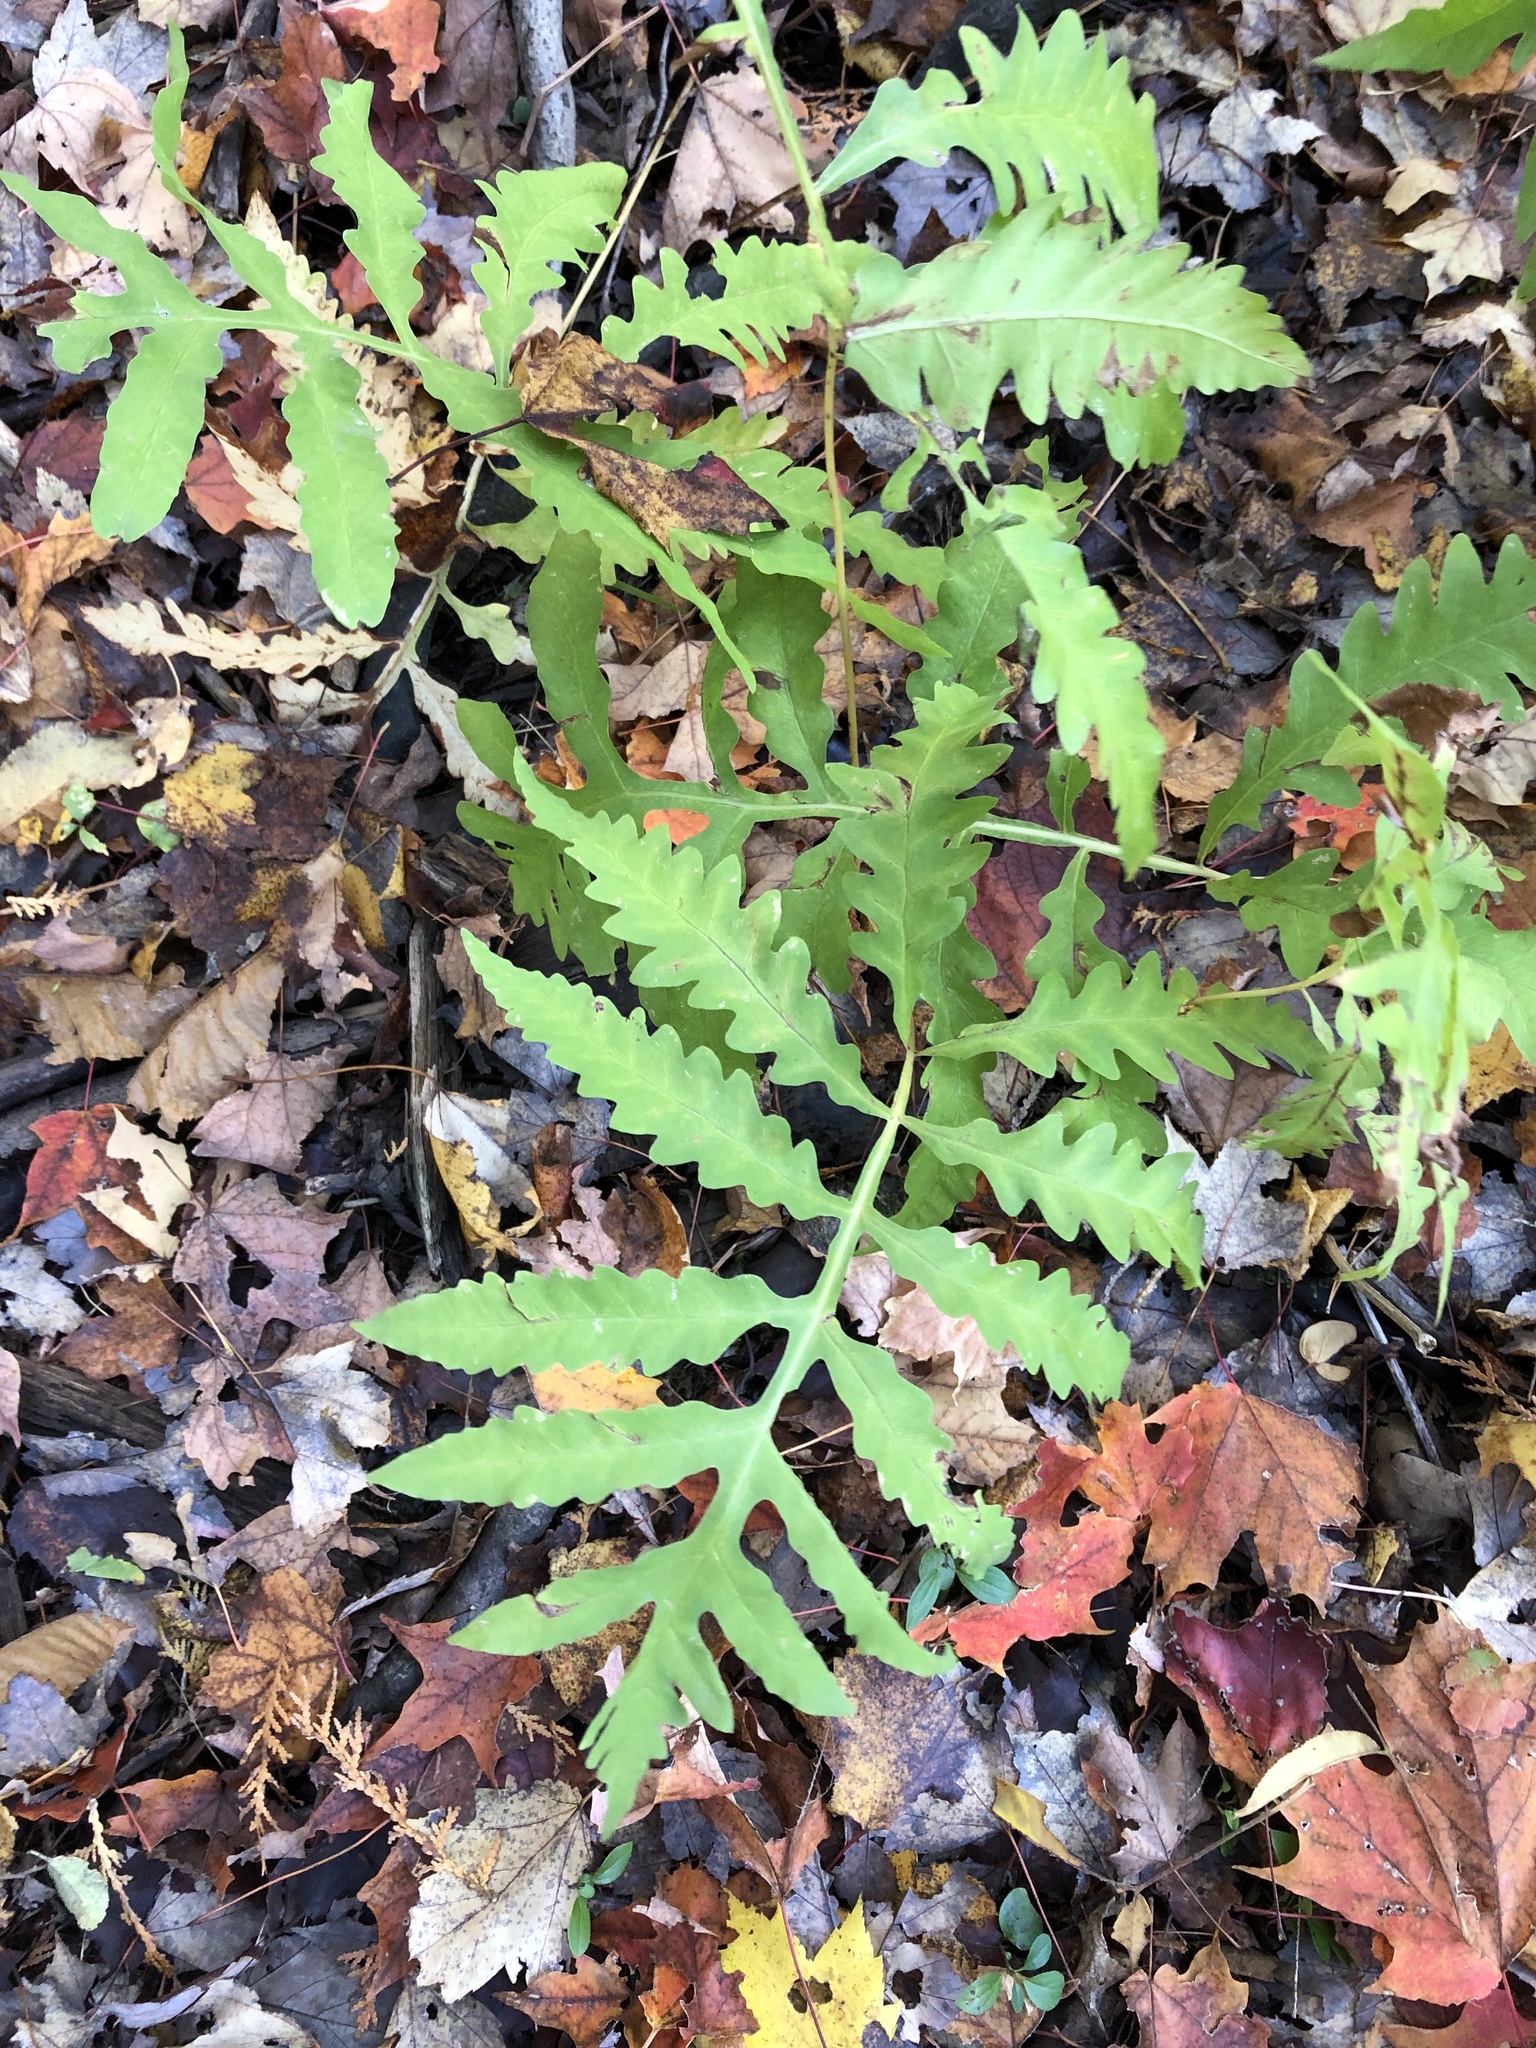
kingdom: Plantae
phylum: Tracheophyta
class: Polypodiopsida
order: Polypodiales
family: Onocleaceae
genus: Onoclea
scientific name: Onoclea sensibilis
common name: Sensitive fern
